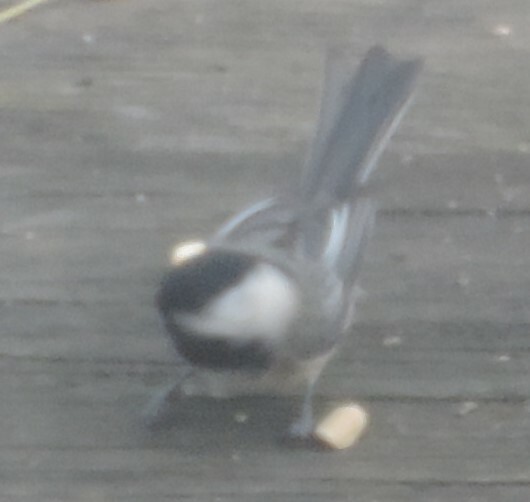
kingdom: Animalia
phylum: Chordata
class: Aves
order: Passeriformes
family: Paridae
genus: Poecile
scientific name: Poecile atricapillus
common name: Black-capped chickadee
